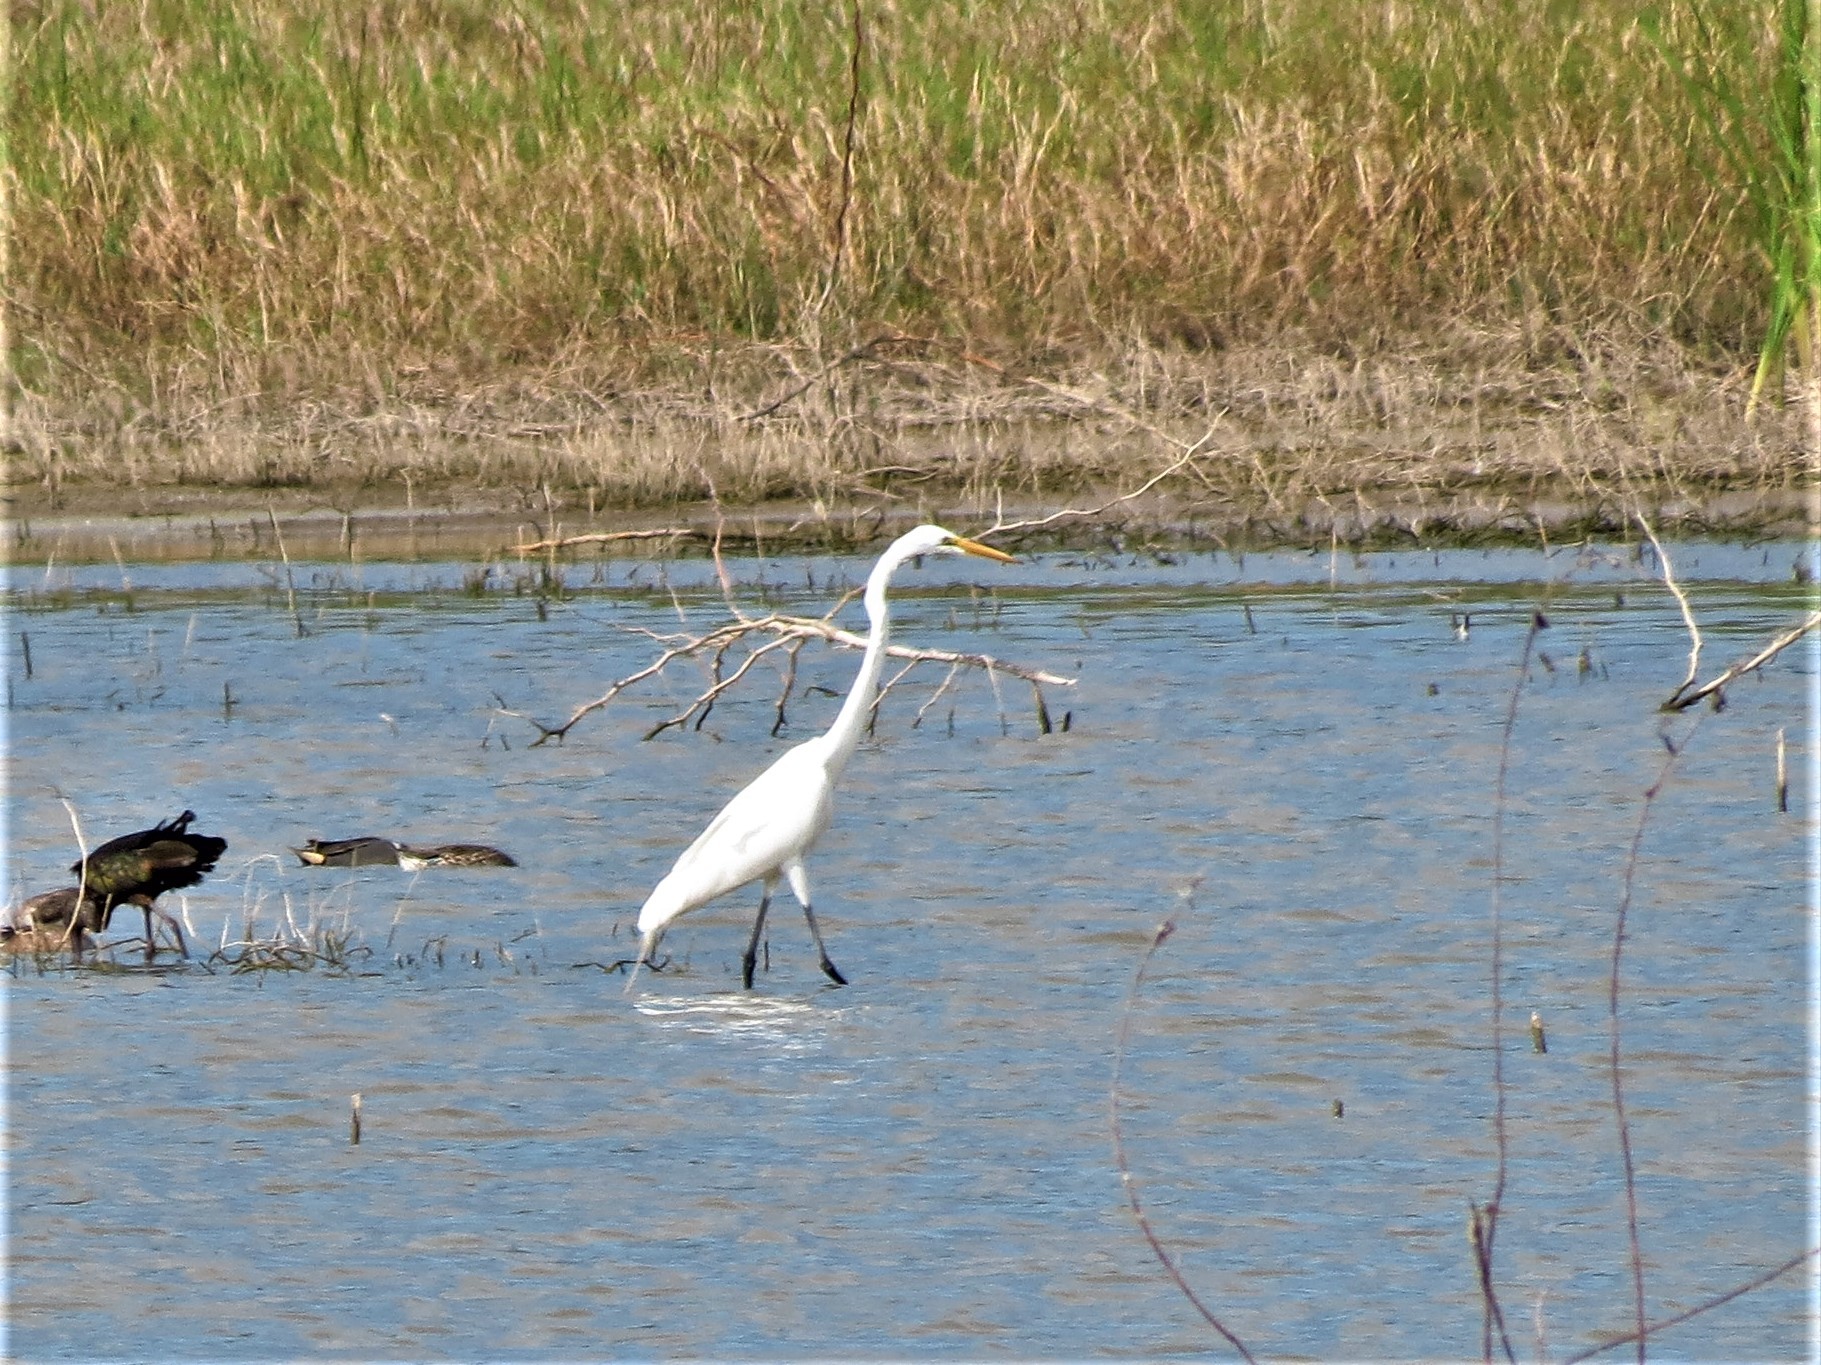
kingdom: Animalia
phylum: Chordata
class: Aves
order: Pelecaniformes
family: Ardeidae
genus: Ardea
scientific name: Ardea alba
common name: Great egret
